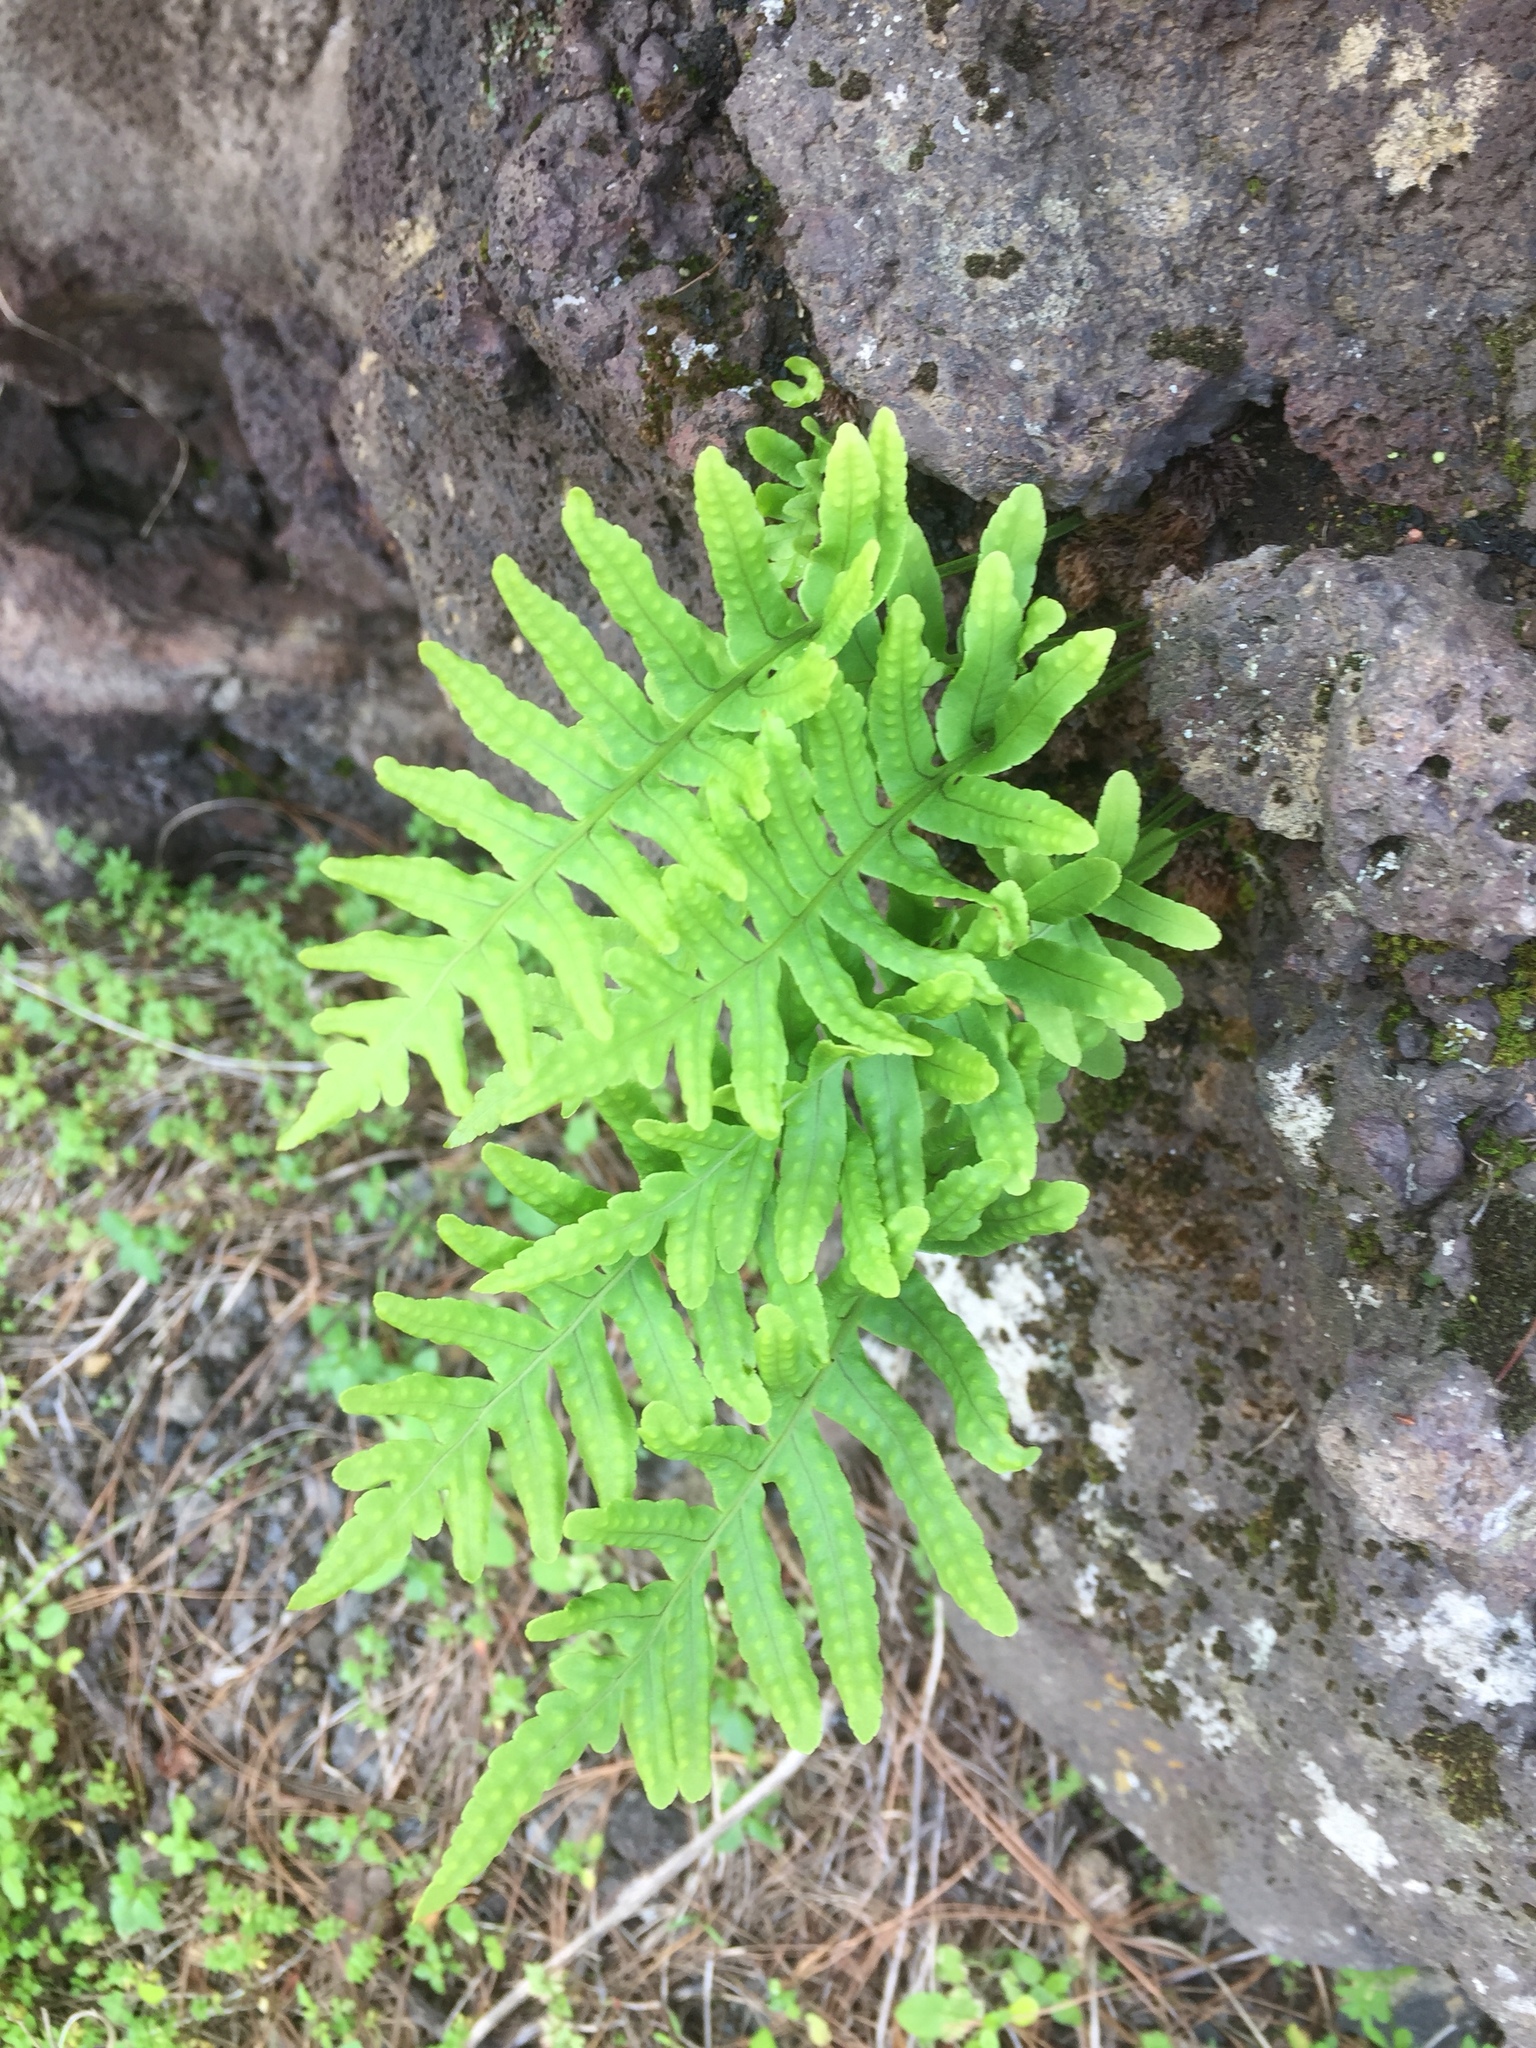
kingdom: Plantae
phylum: Tracheophyta
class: Polypodiopsida
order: Polypodiales
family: Polypodiaceae
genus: Polypodium
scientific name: Polypodium macaronesicum
